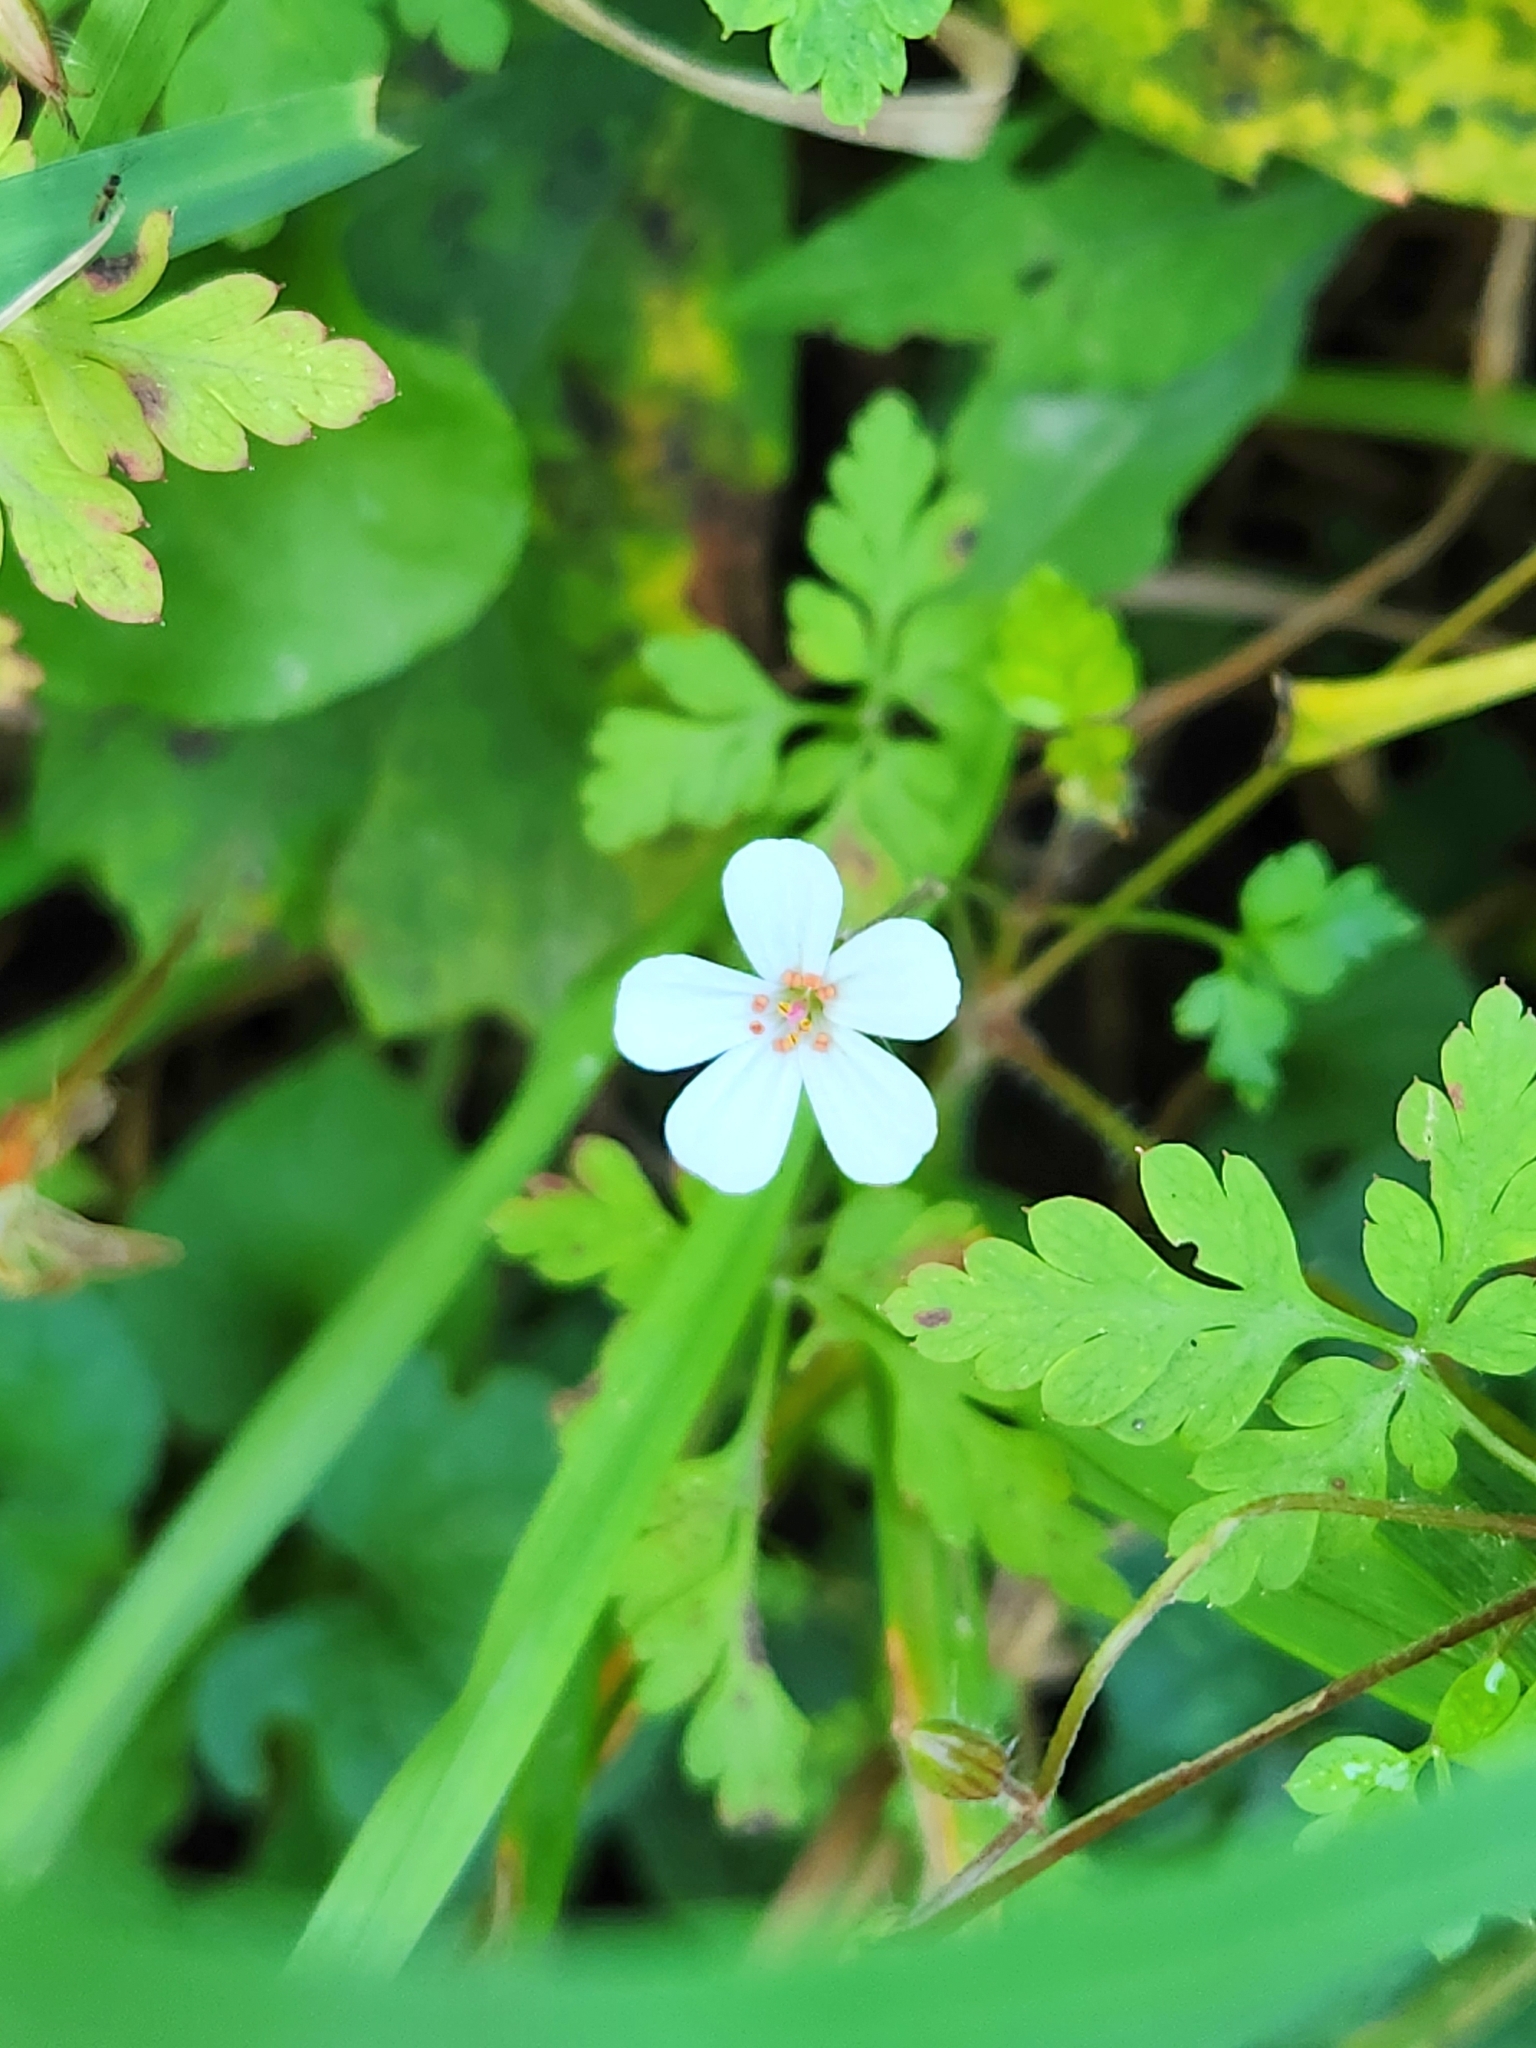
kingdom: Plantae
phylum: Tracheophyta
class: Magnoliopsida
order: Geraniales
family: Geraniaceae
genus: Geranium
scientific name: Geranium robertianum
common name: Herb-robert
